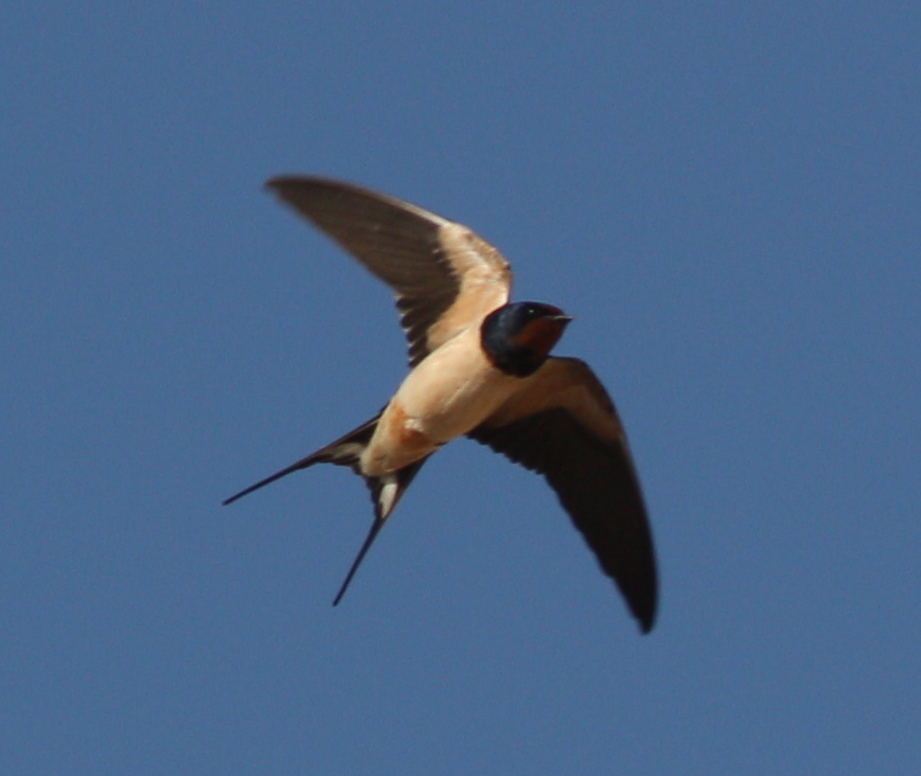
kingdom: Animalia
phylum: Chordata
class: Aves
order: Passeriformes
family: Hirundinidae
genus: Hirundo
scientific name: Hirundo rustica
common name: Barn swallow
